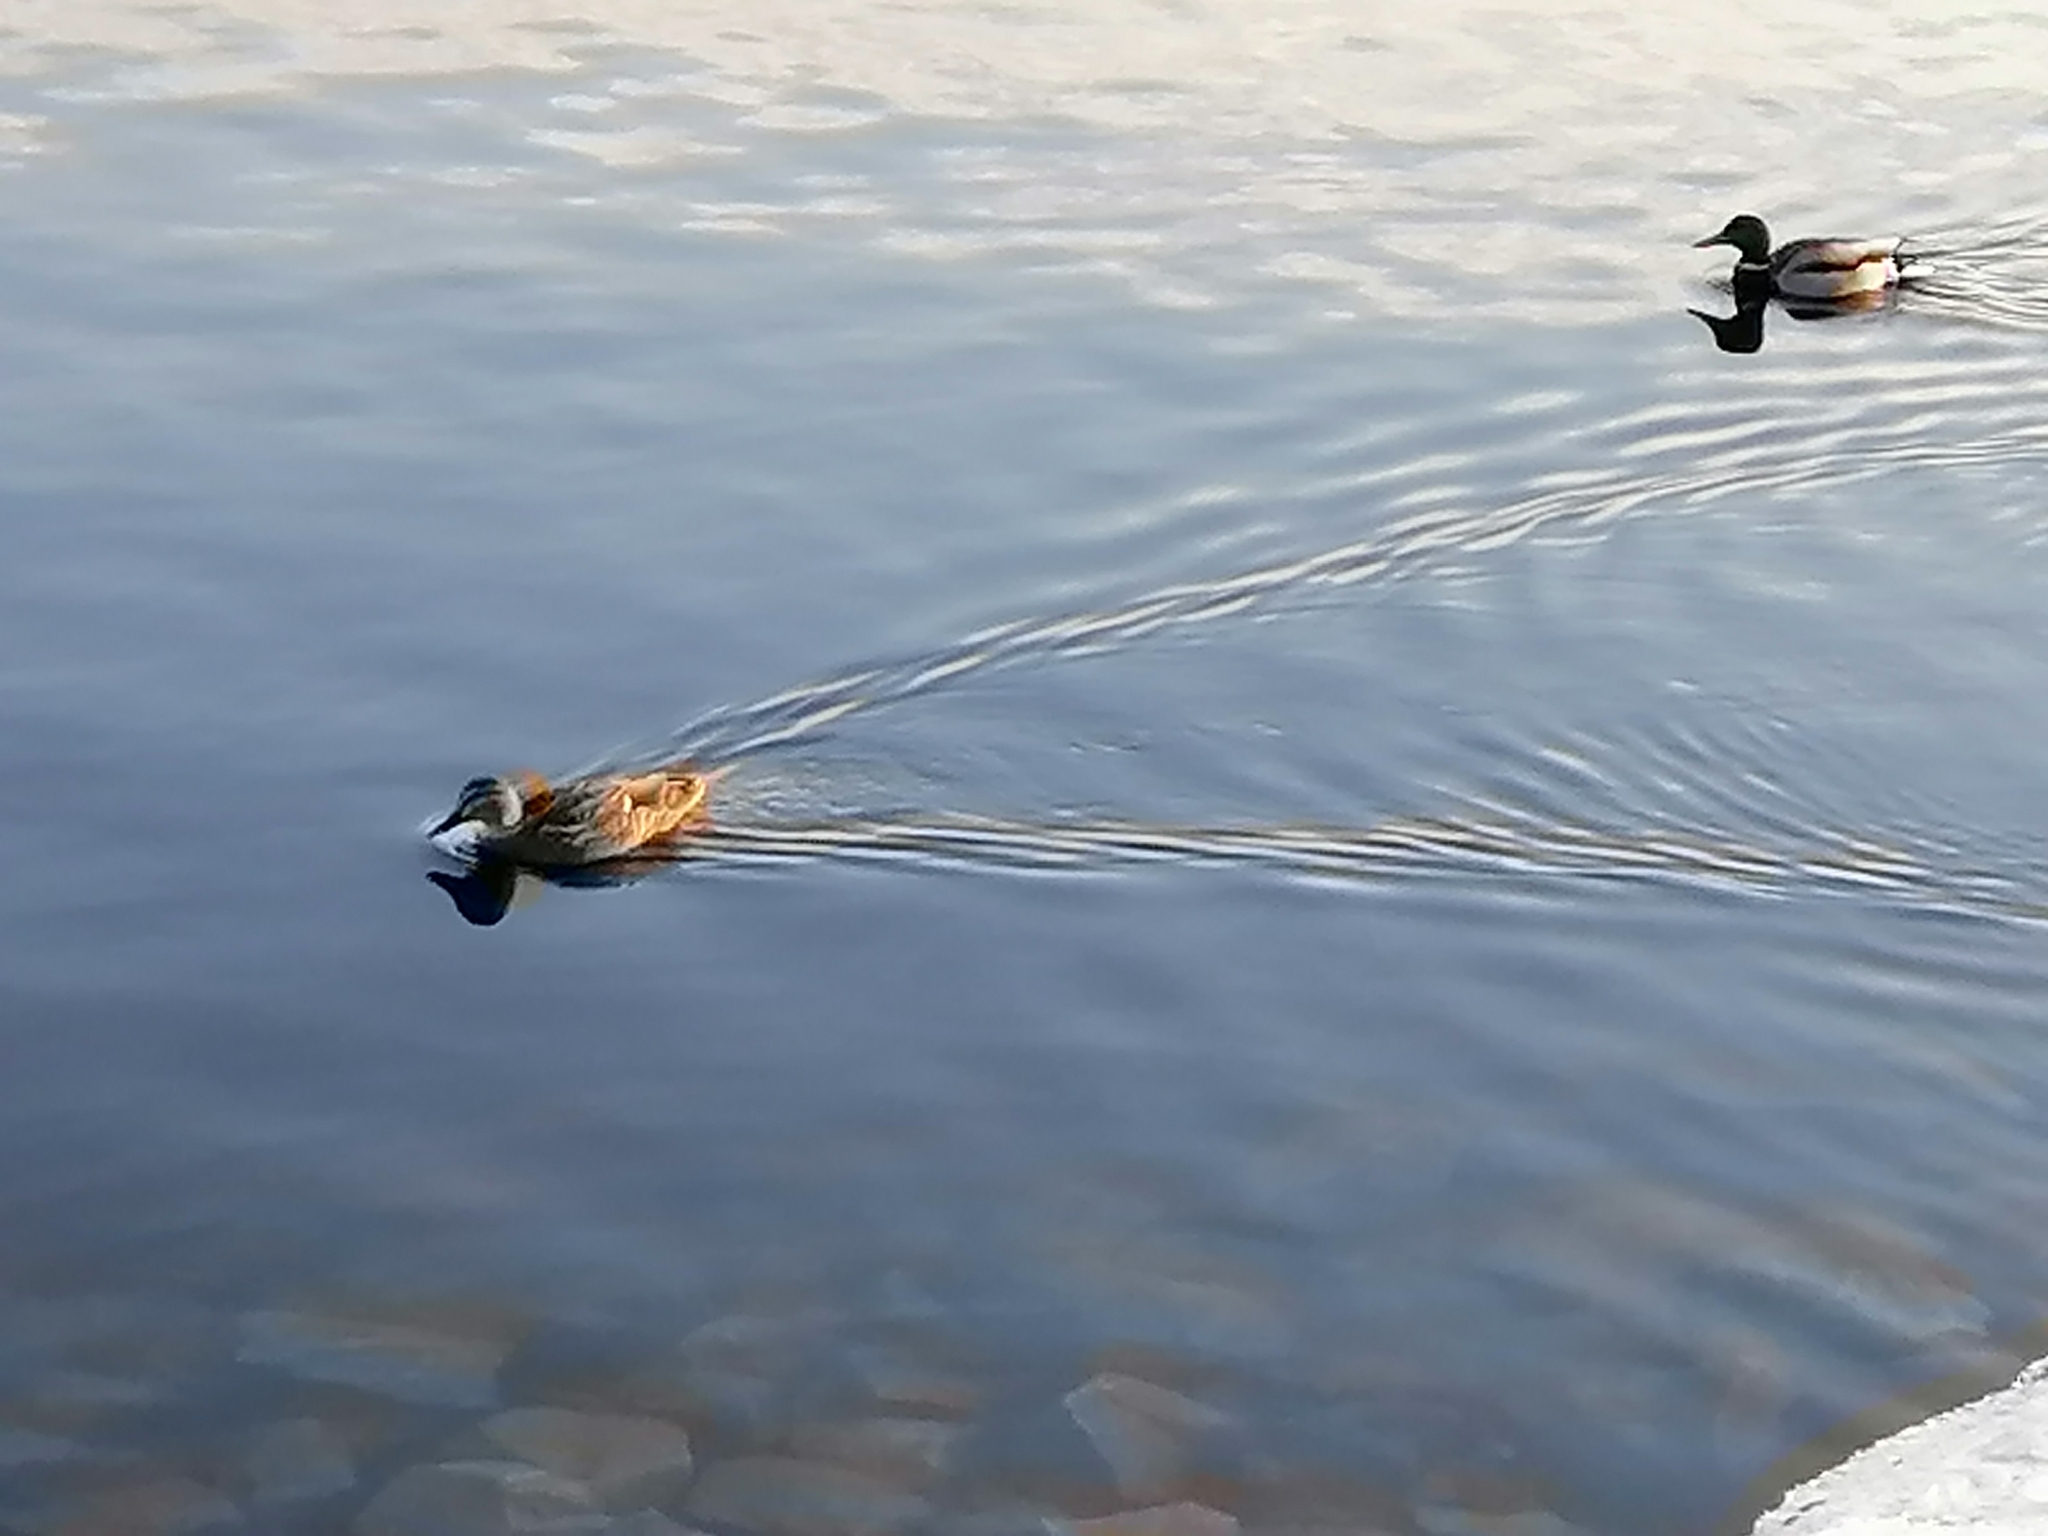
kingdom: Animalia
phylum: Chordata
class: Aves
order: Anseriformes
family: Anatidae
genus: Anas
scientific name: Anas platyrhynchos
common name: Mallard
